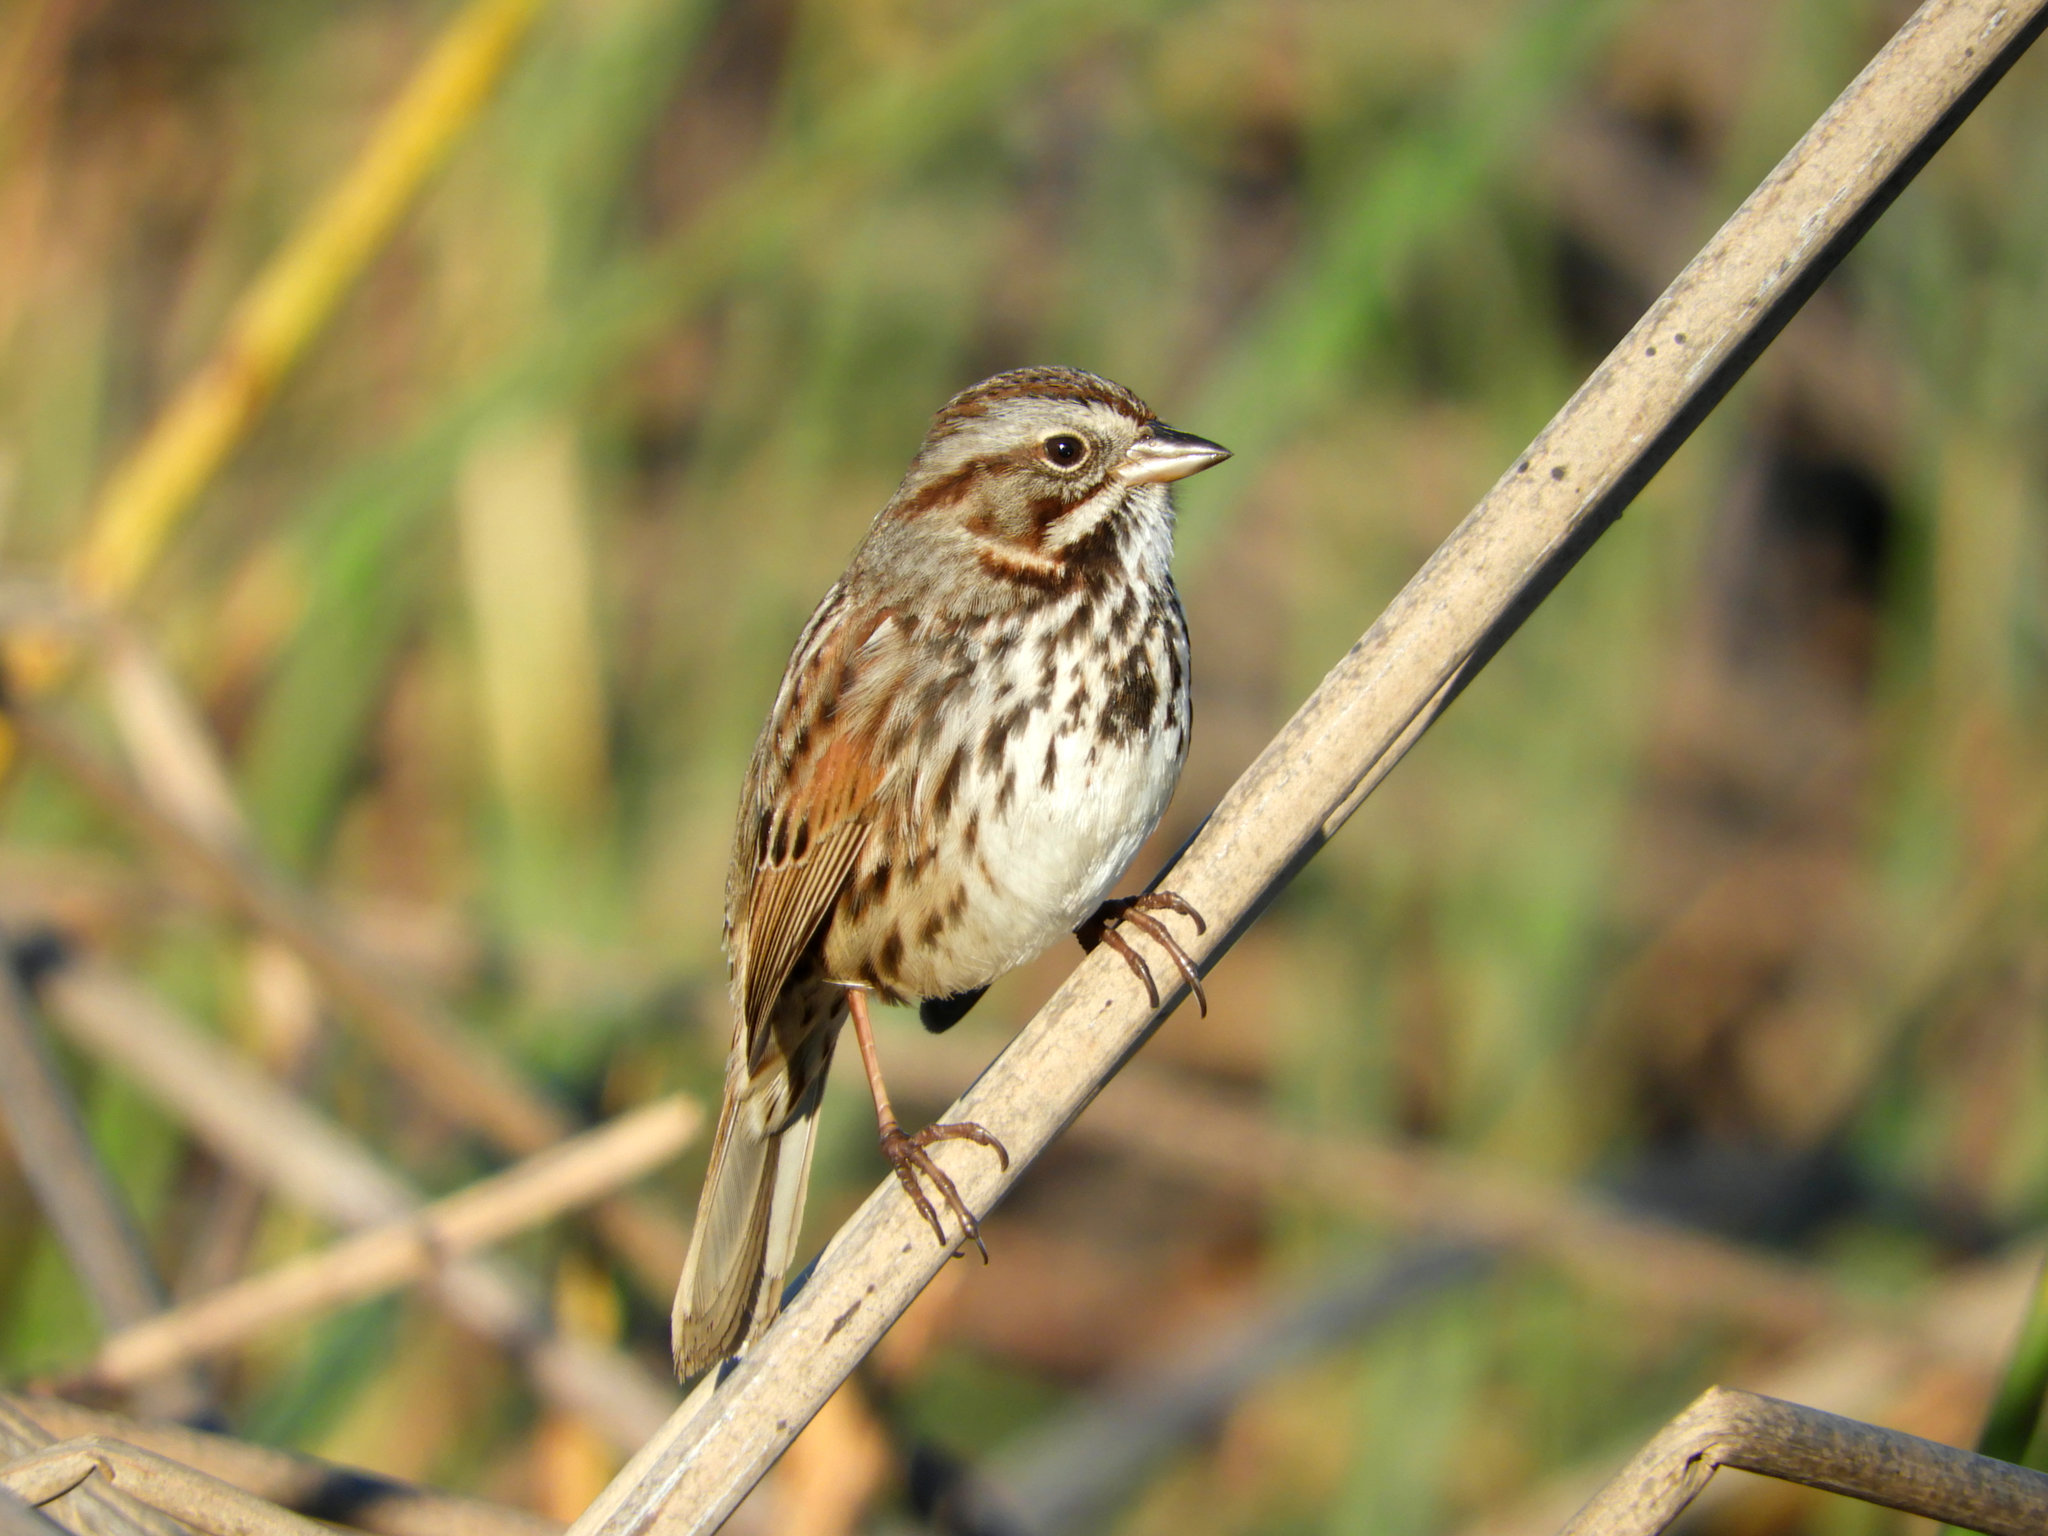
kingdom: Animalia
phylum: Chordata
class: Aves
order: Passeriformes
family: Passerellidae
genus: Melospiza
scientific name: Melospiza melodia
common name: Song sparrow
